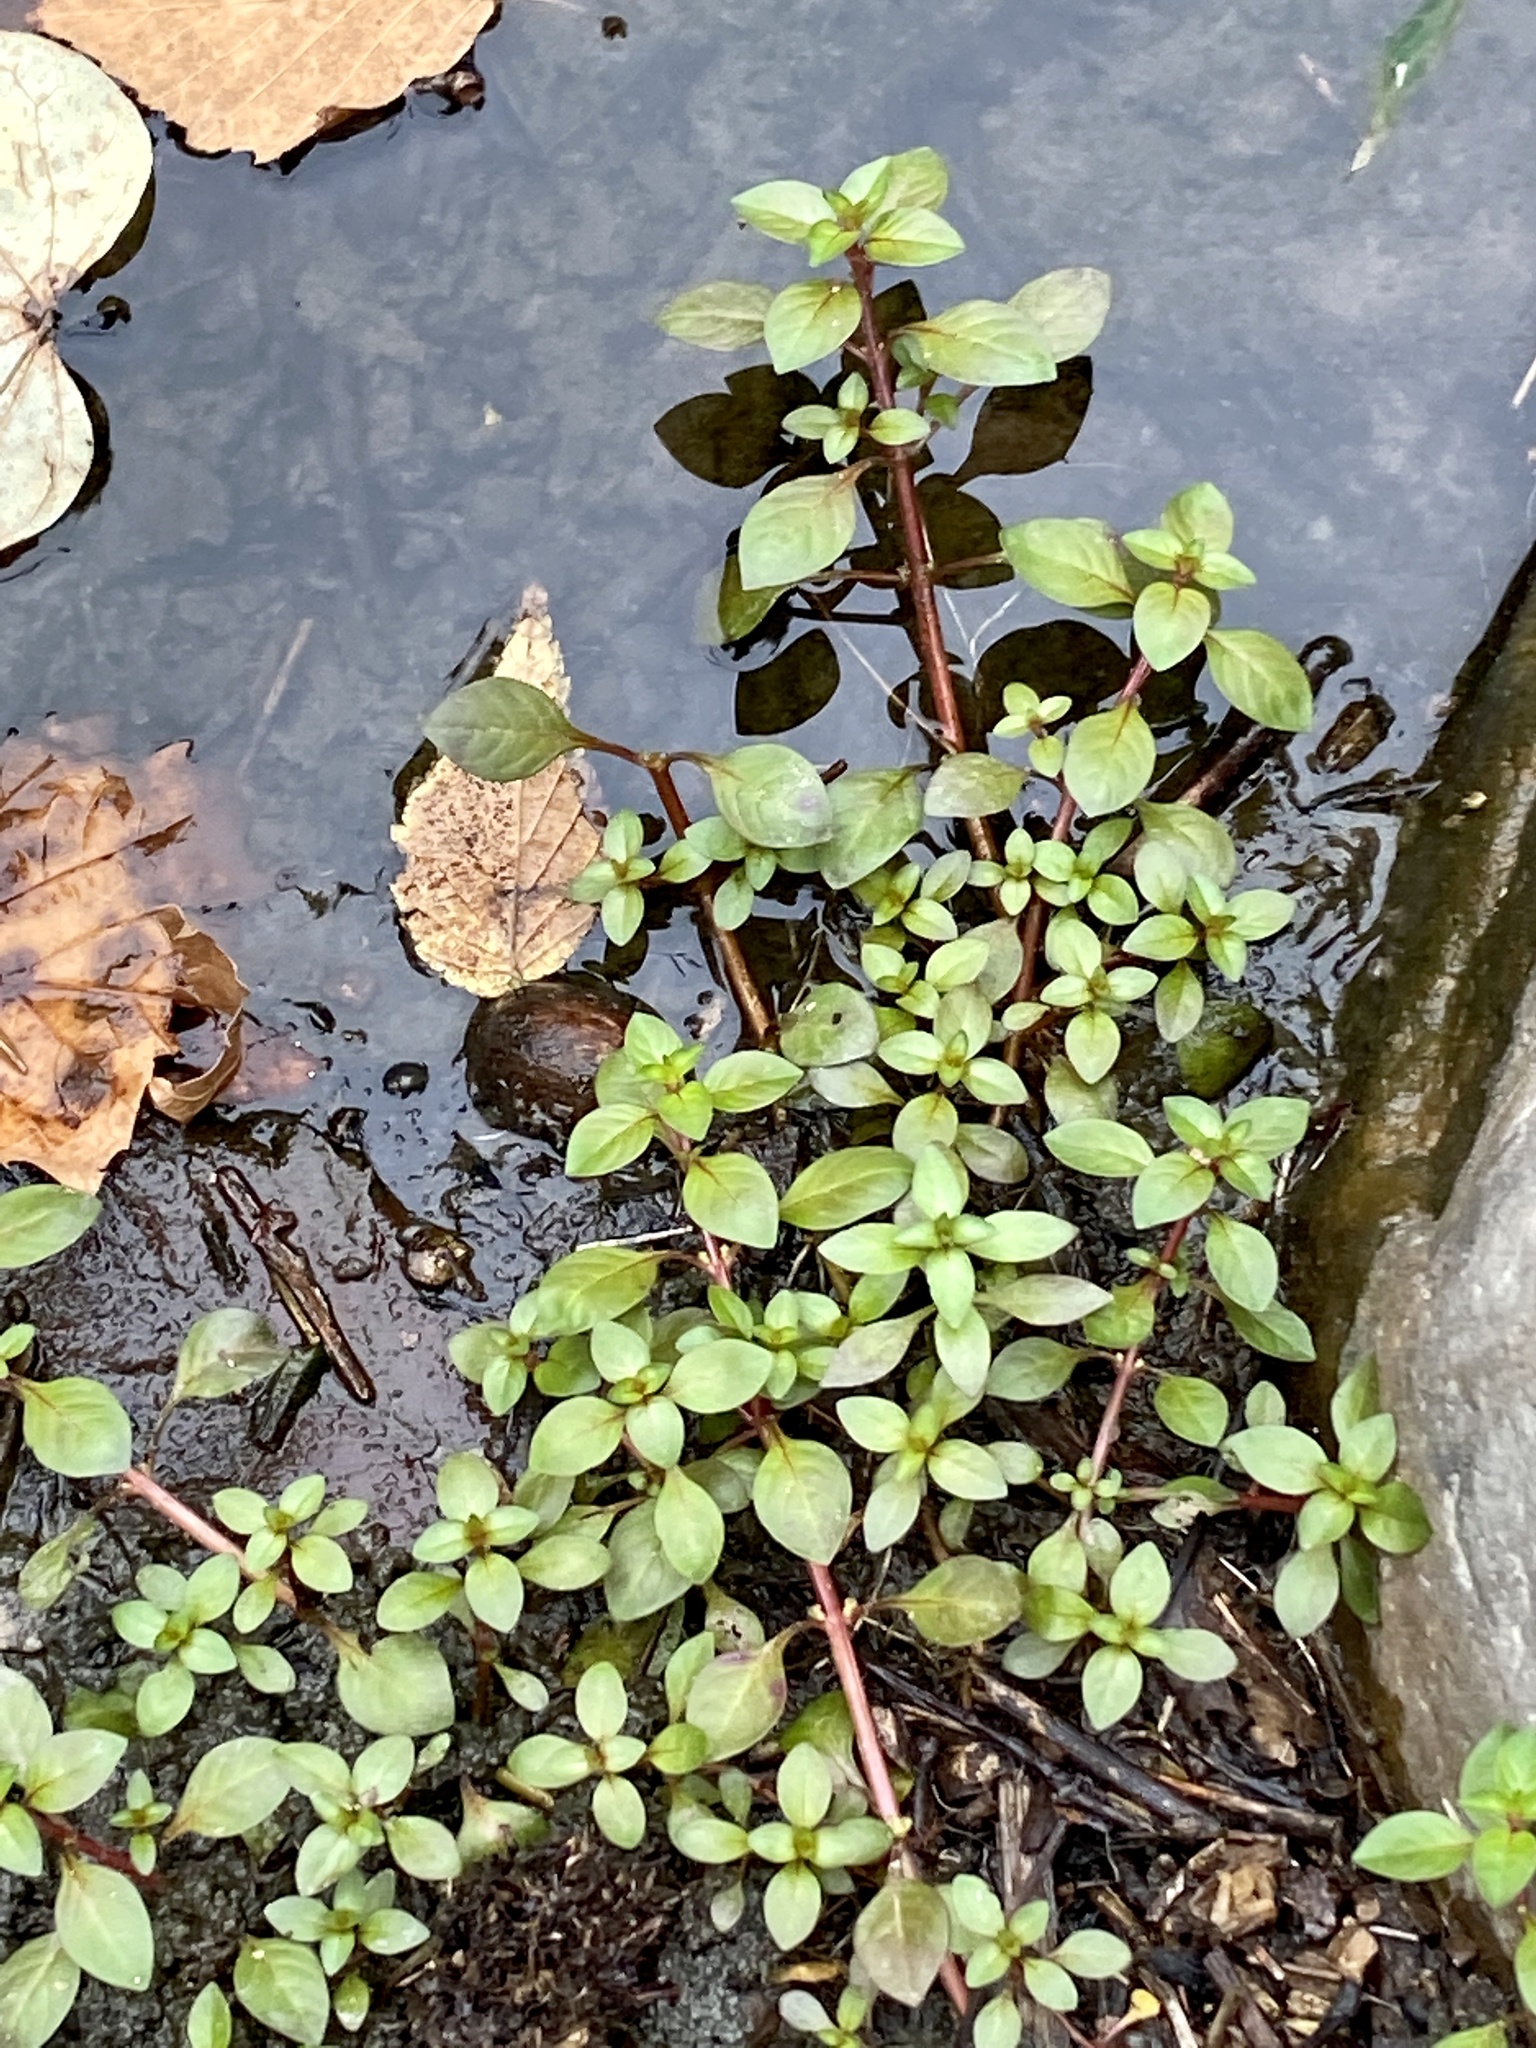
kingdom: Plantae
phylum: Tracheophyta
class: Magnoliopsida
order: Myrtales
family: Onagraceae
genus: Ludwigia
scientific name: Ludwigia palustris
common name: Hampshire-purslane
